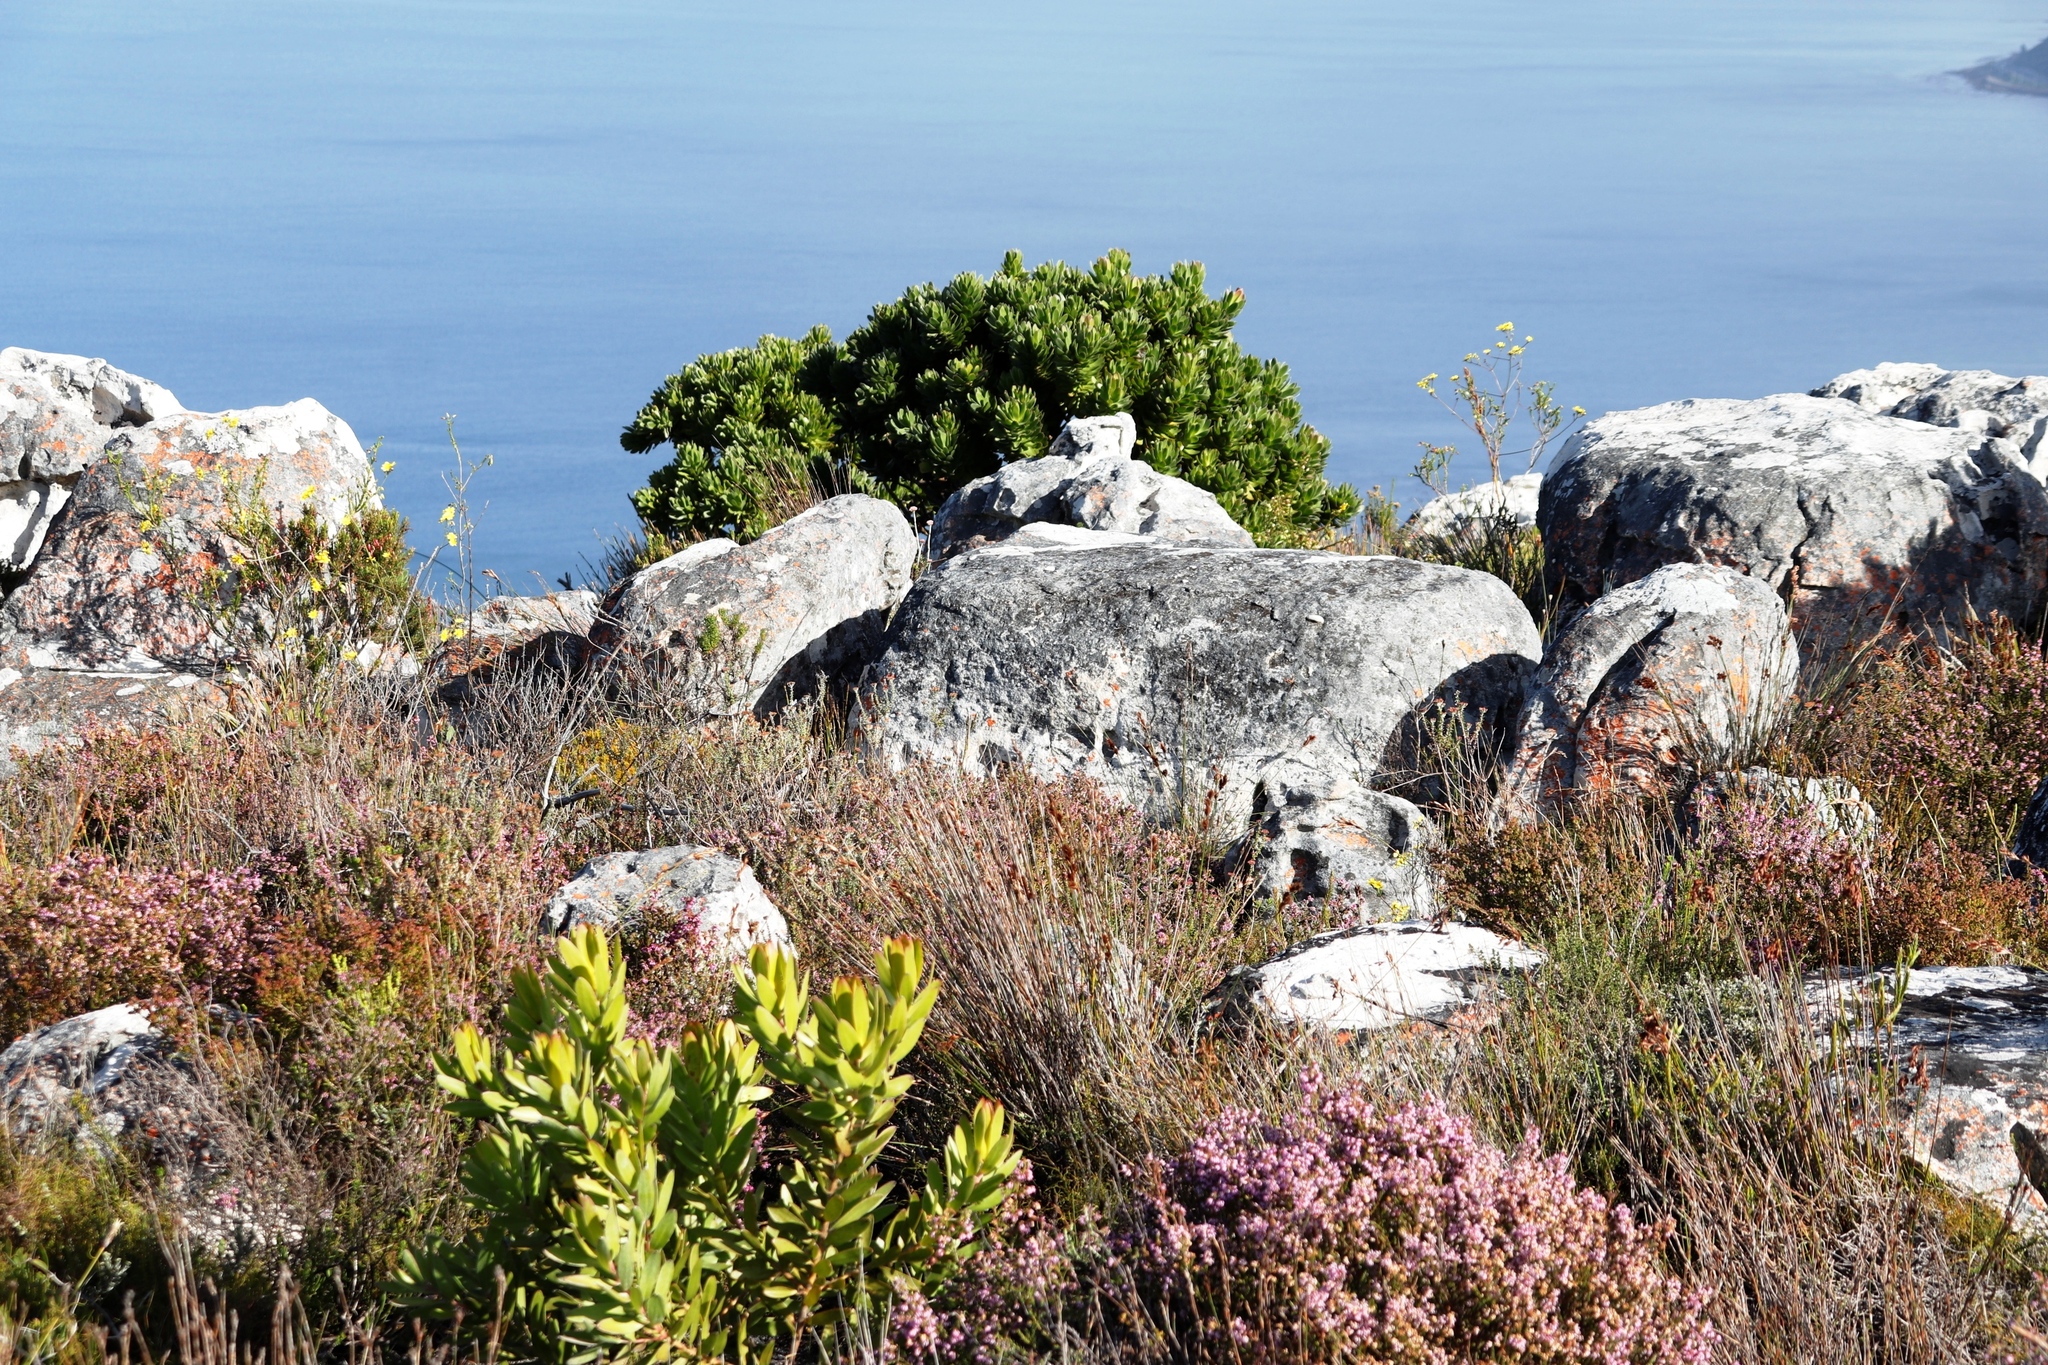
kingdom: Plantae
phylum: Tracheophyta
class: Magnoliopsida
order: Asterales
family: Asteraceae
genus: Othonna
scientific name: Othonna quinquedentata
